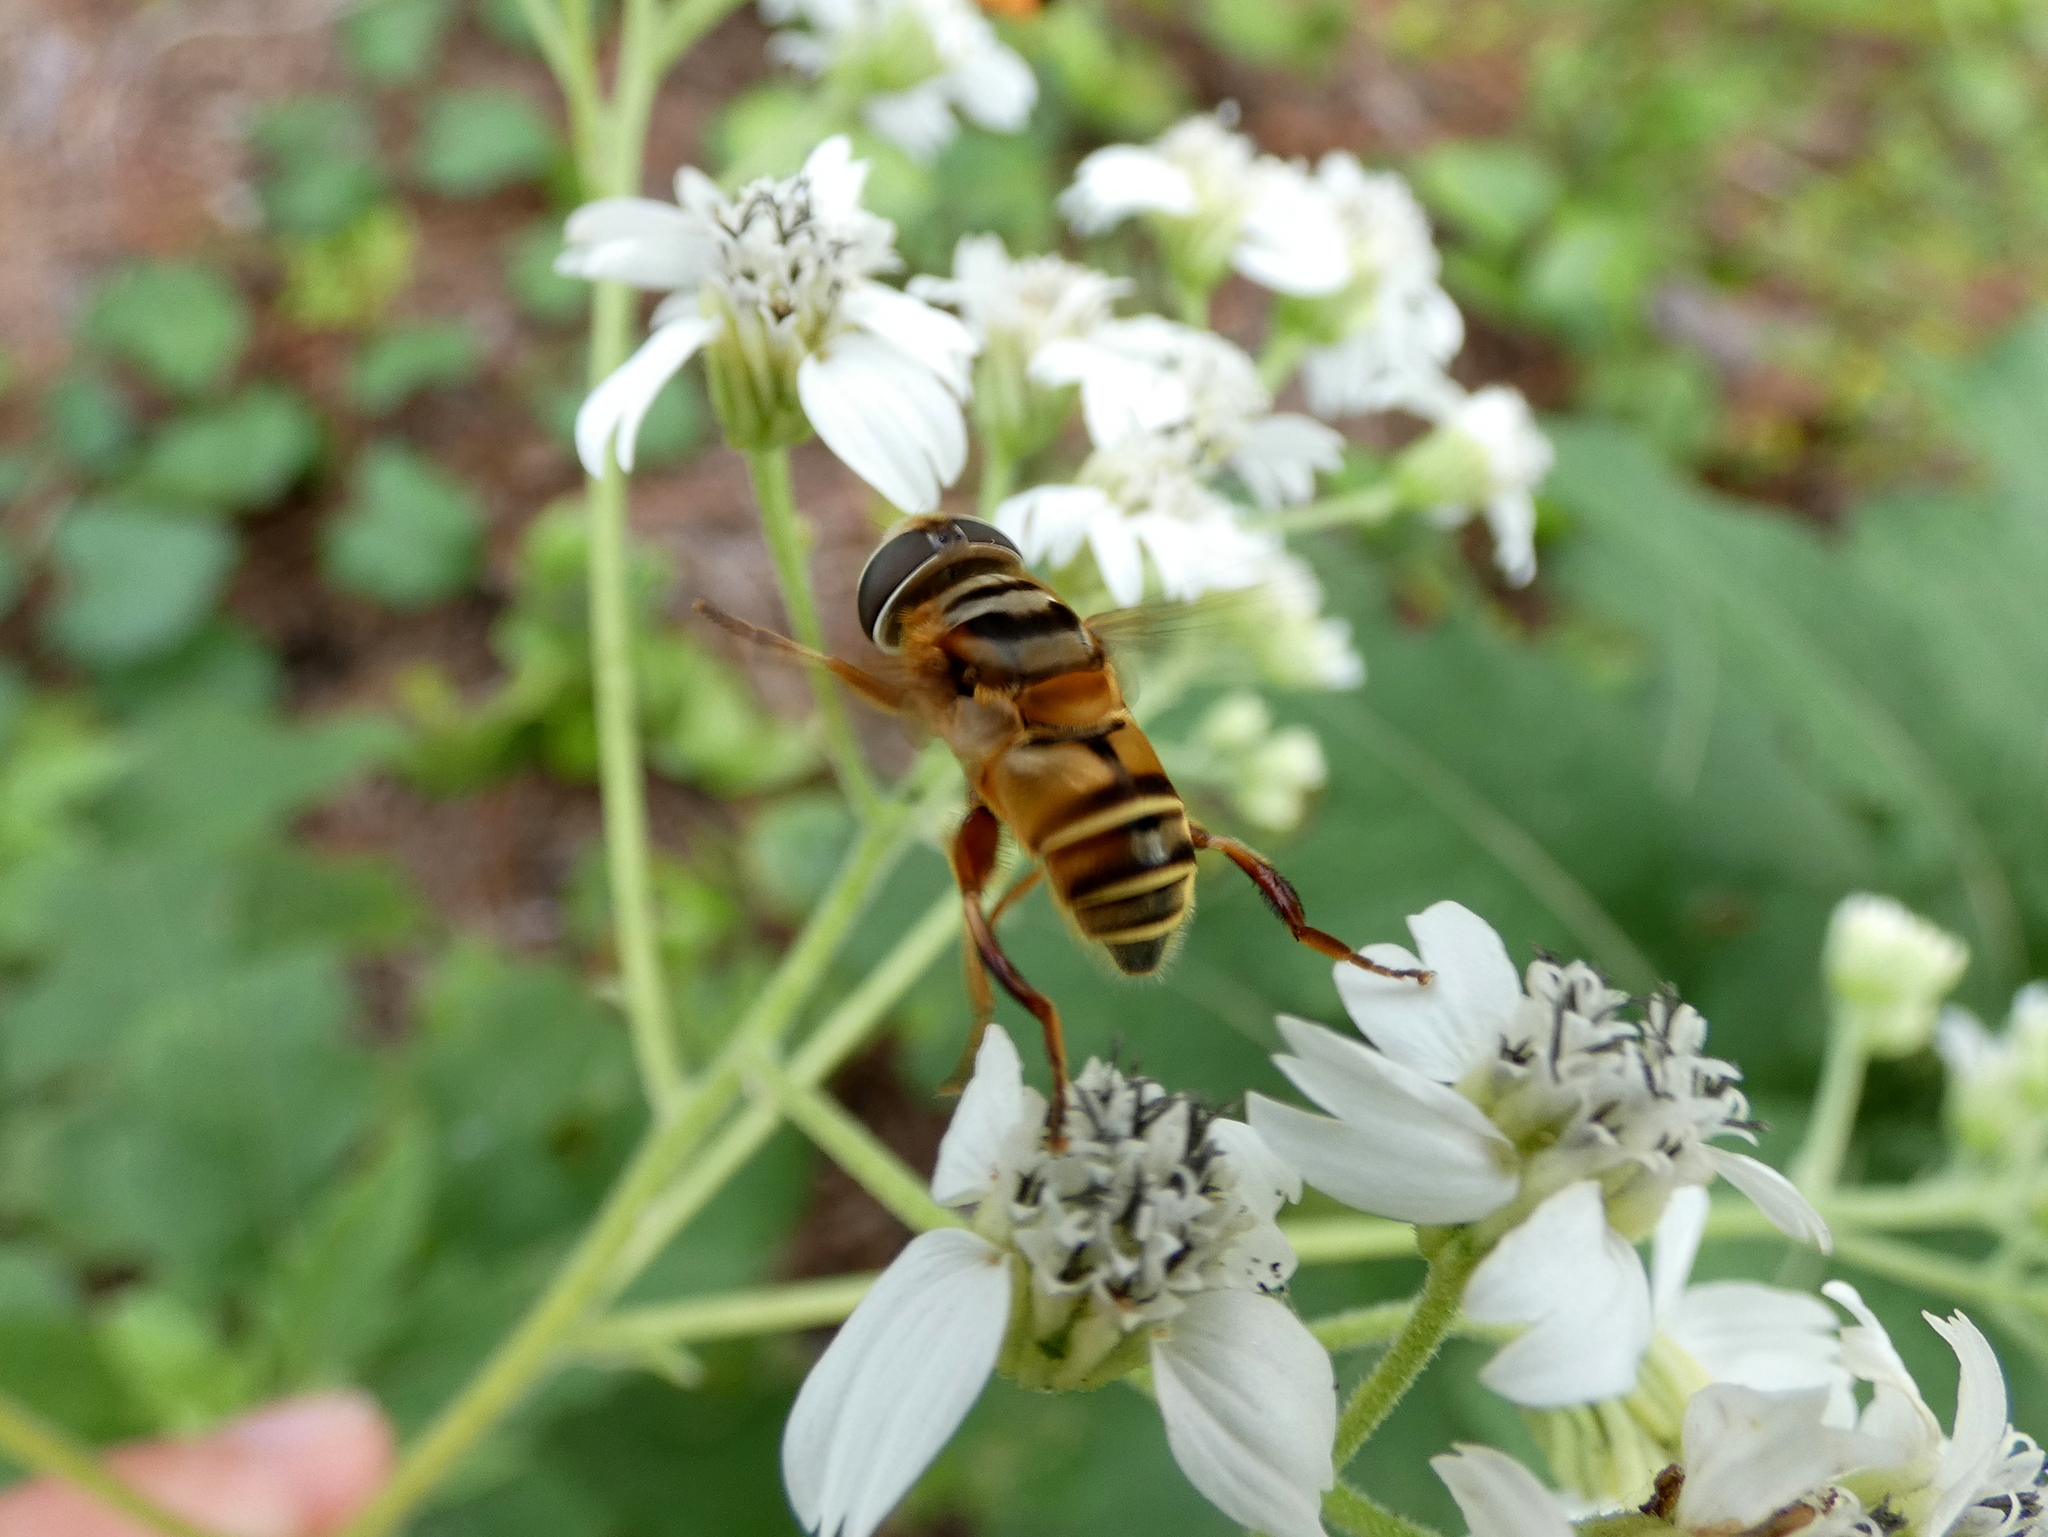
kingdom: Animalia
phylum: Arthropoda
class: Insecta
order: Diptera
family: Syrphidae
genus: Palpada
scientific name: Palpada vinetorum
